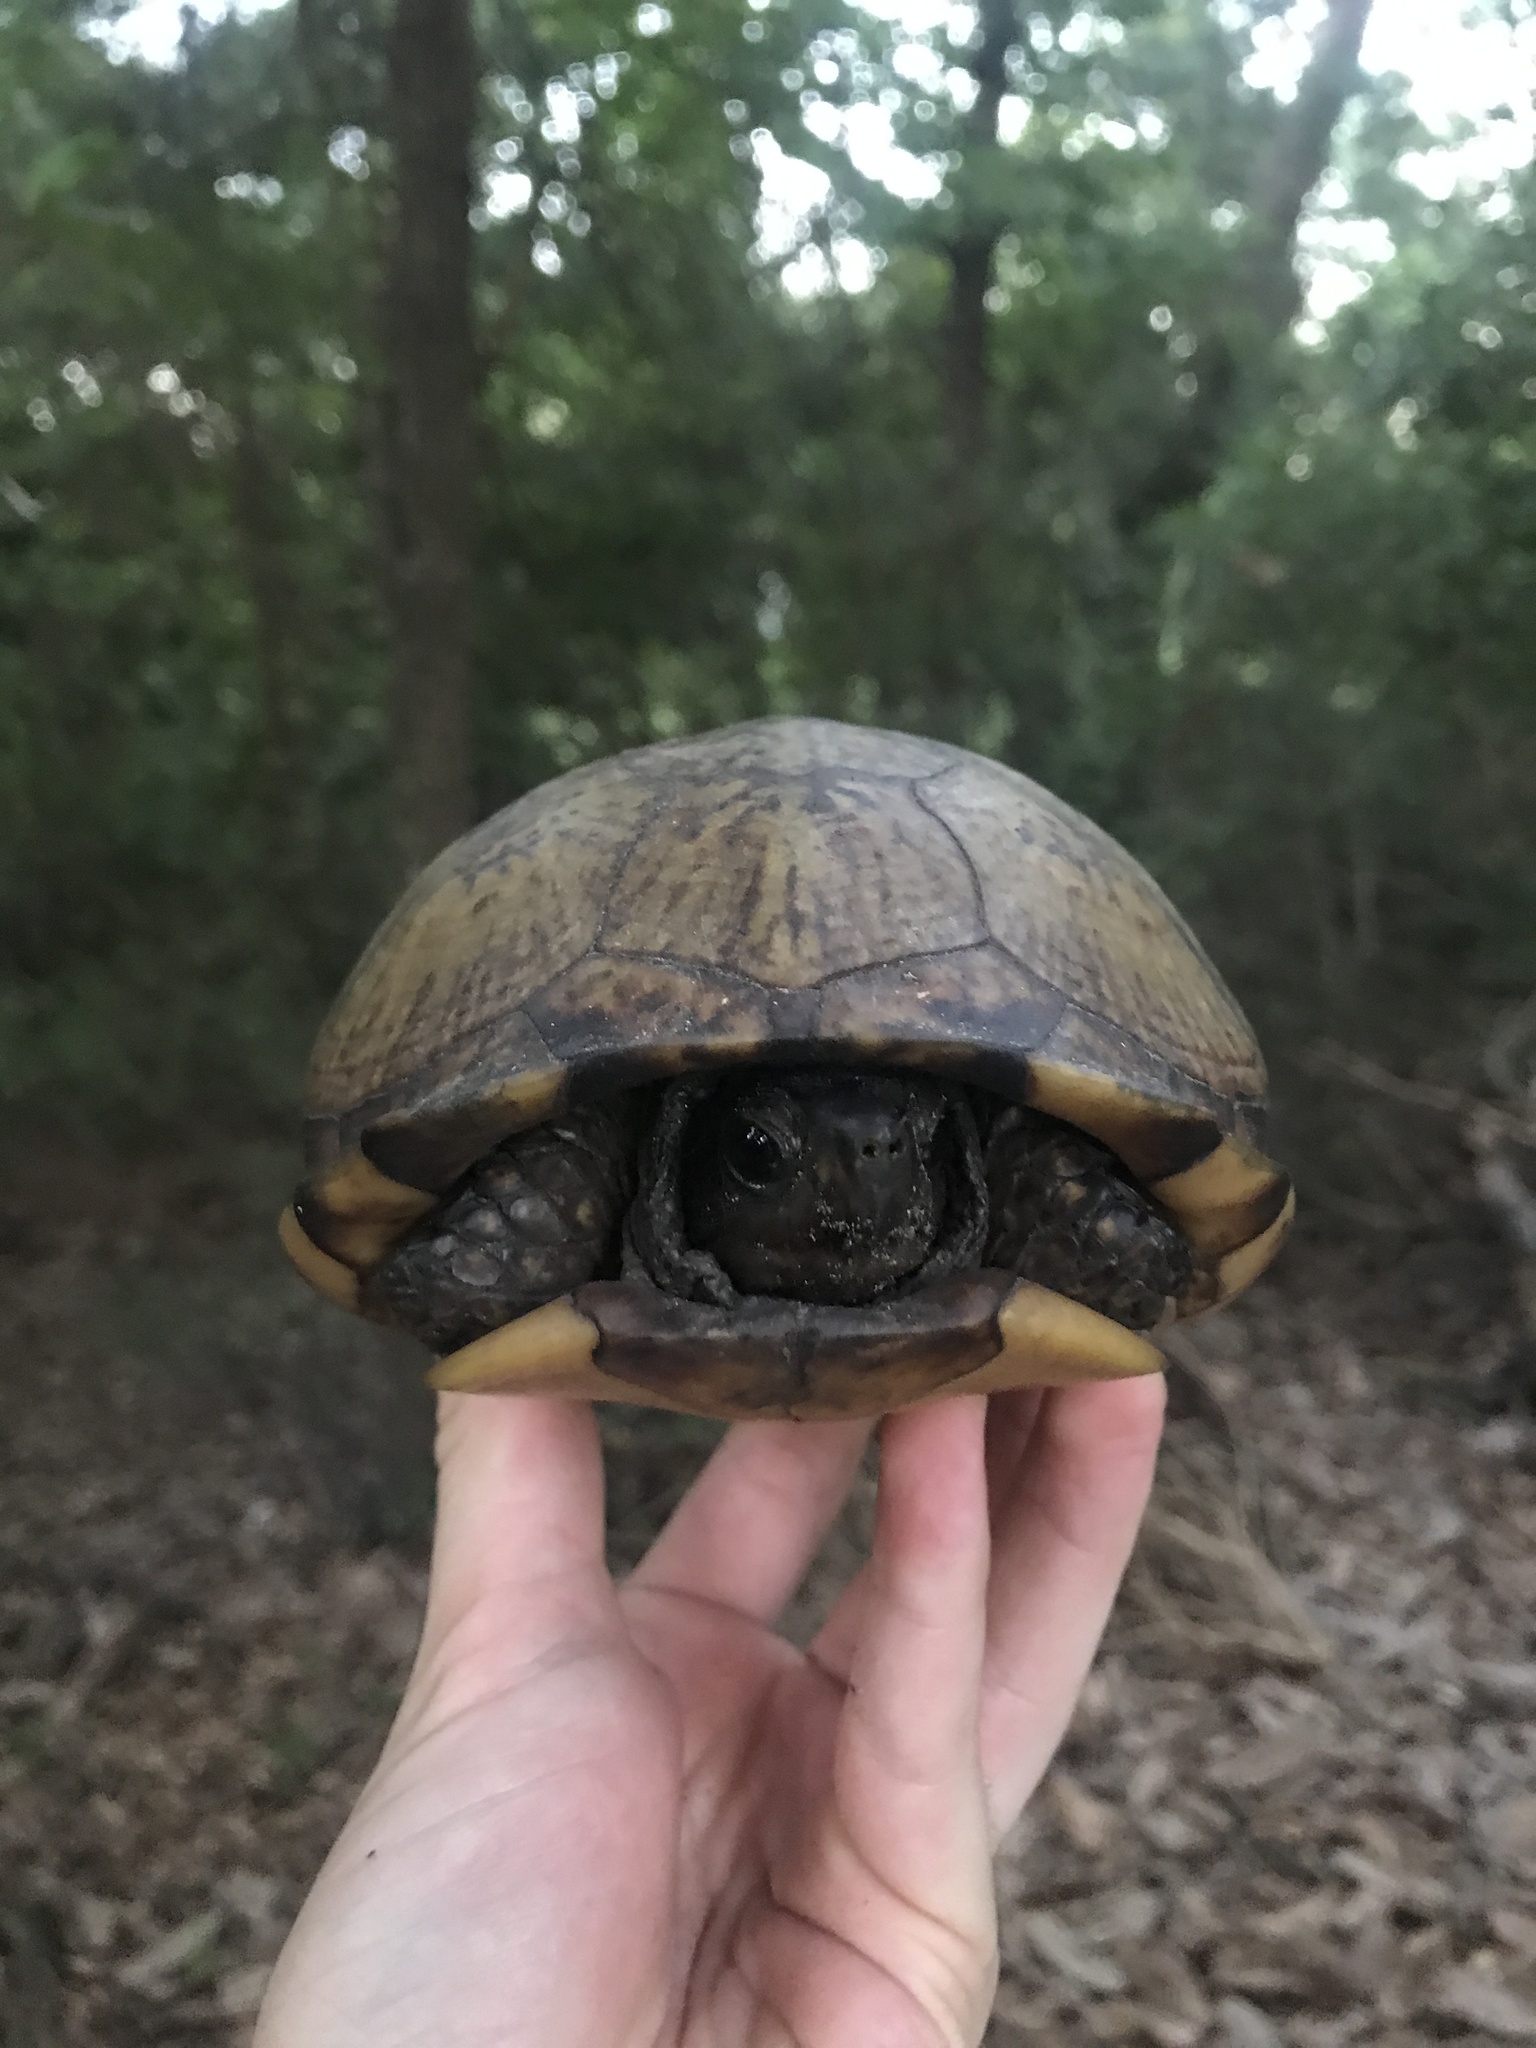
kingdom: Animalia
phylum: Chordata
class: Testudines
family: Emydidae
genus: Terrapene
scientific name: Terrapene carolina
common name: Common box turtle
